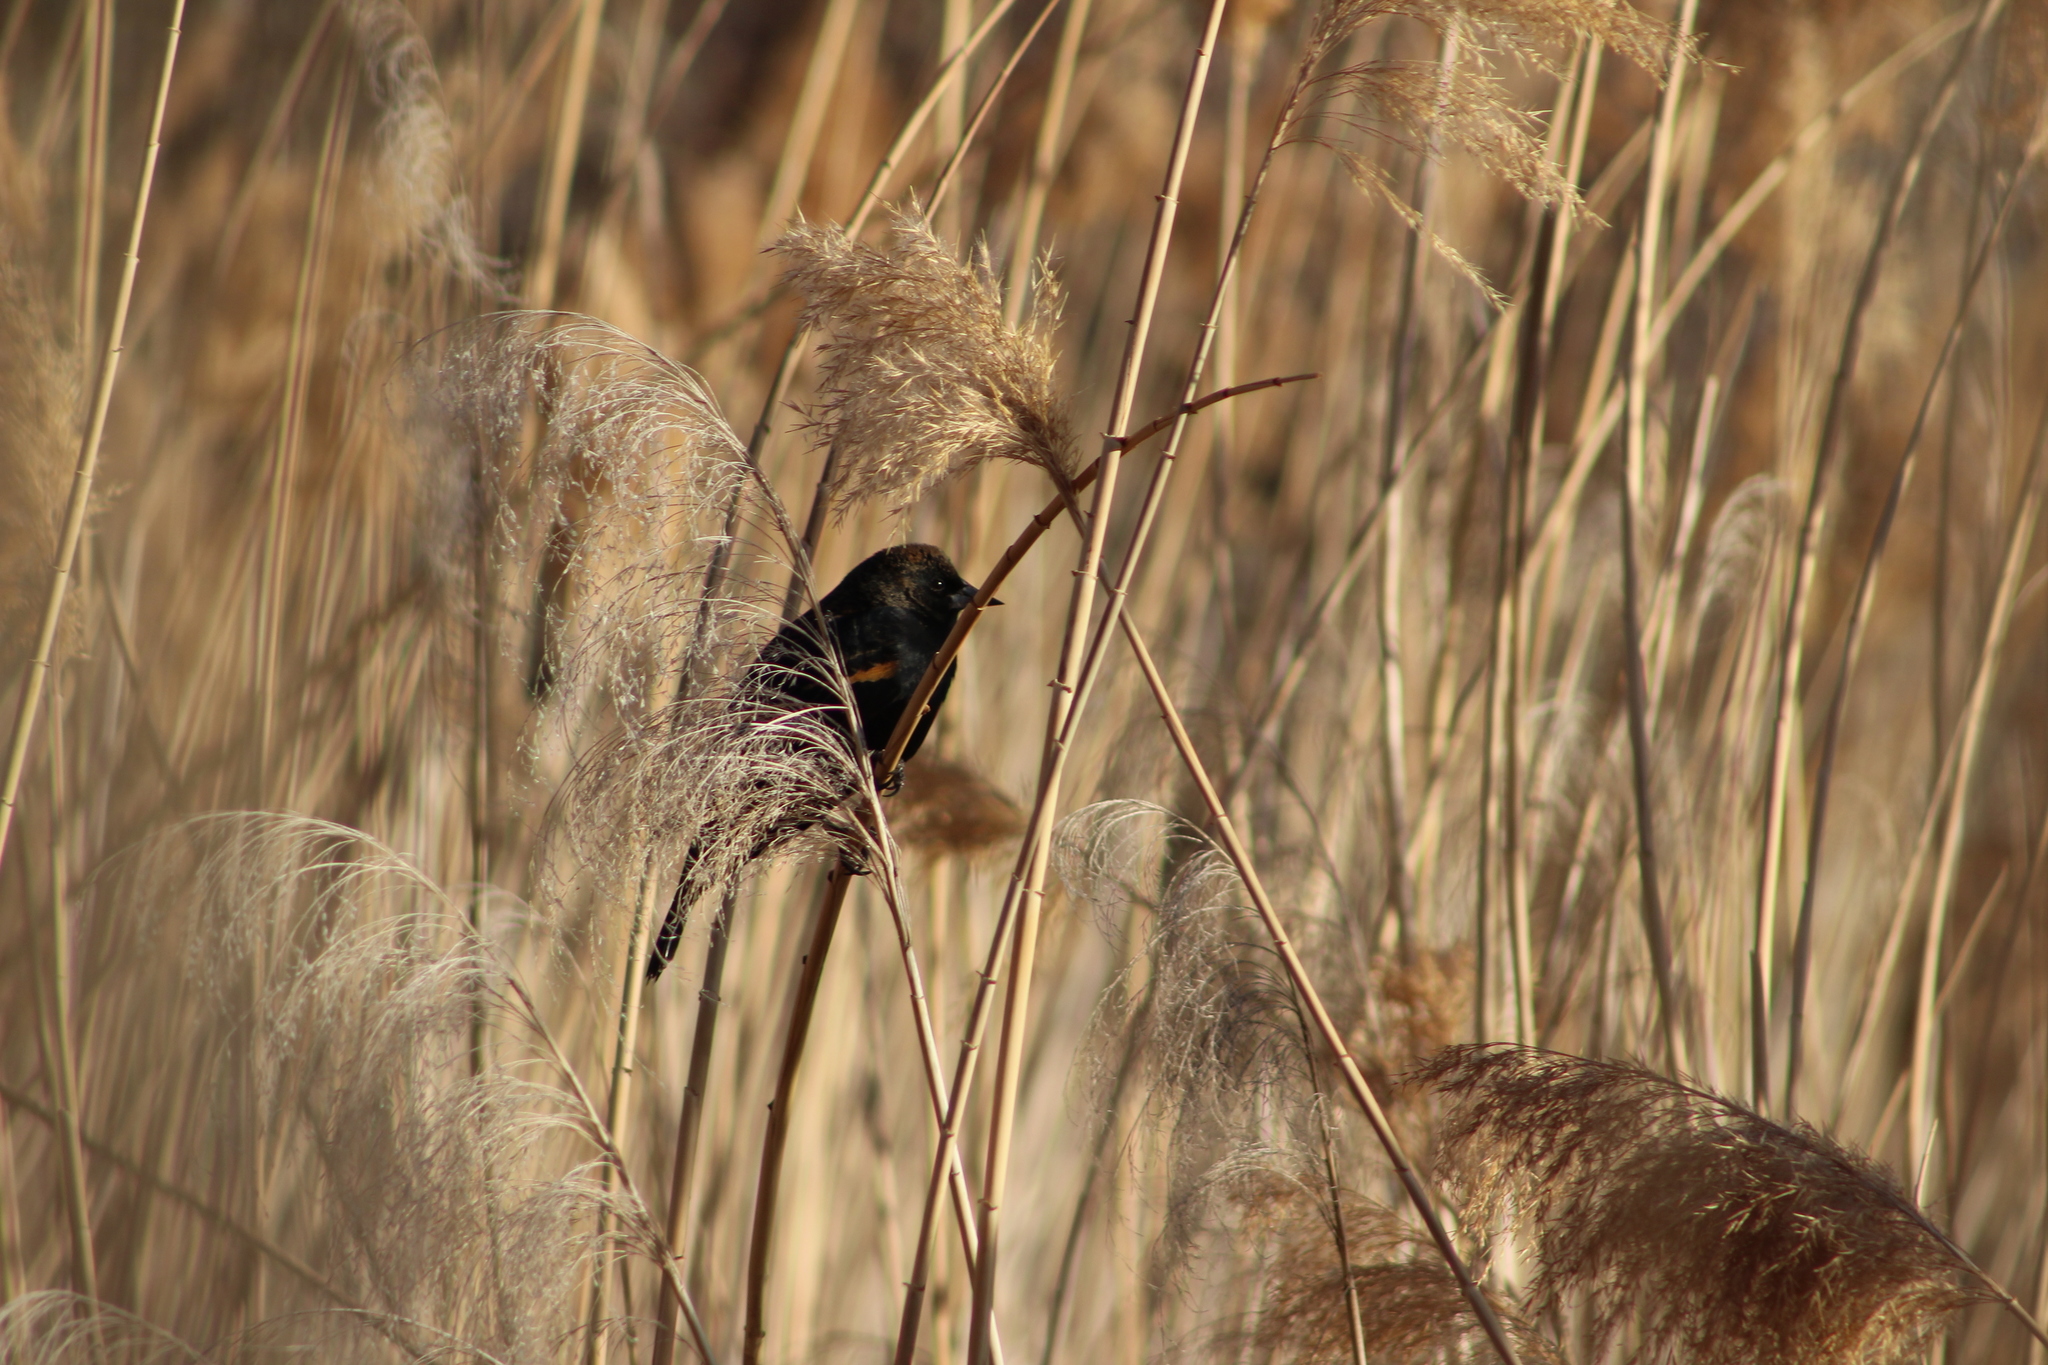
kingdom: Animalia
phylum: Chordata
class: Aves
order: Passeriformes
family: Icteridae
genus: Agelaius
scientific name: Agelaius phoeniceus
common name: Red-winged blackbird
